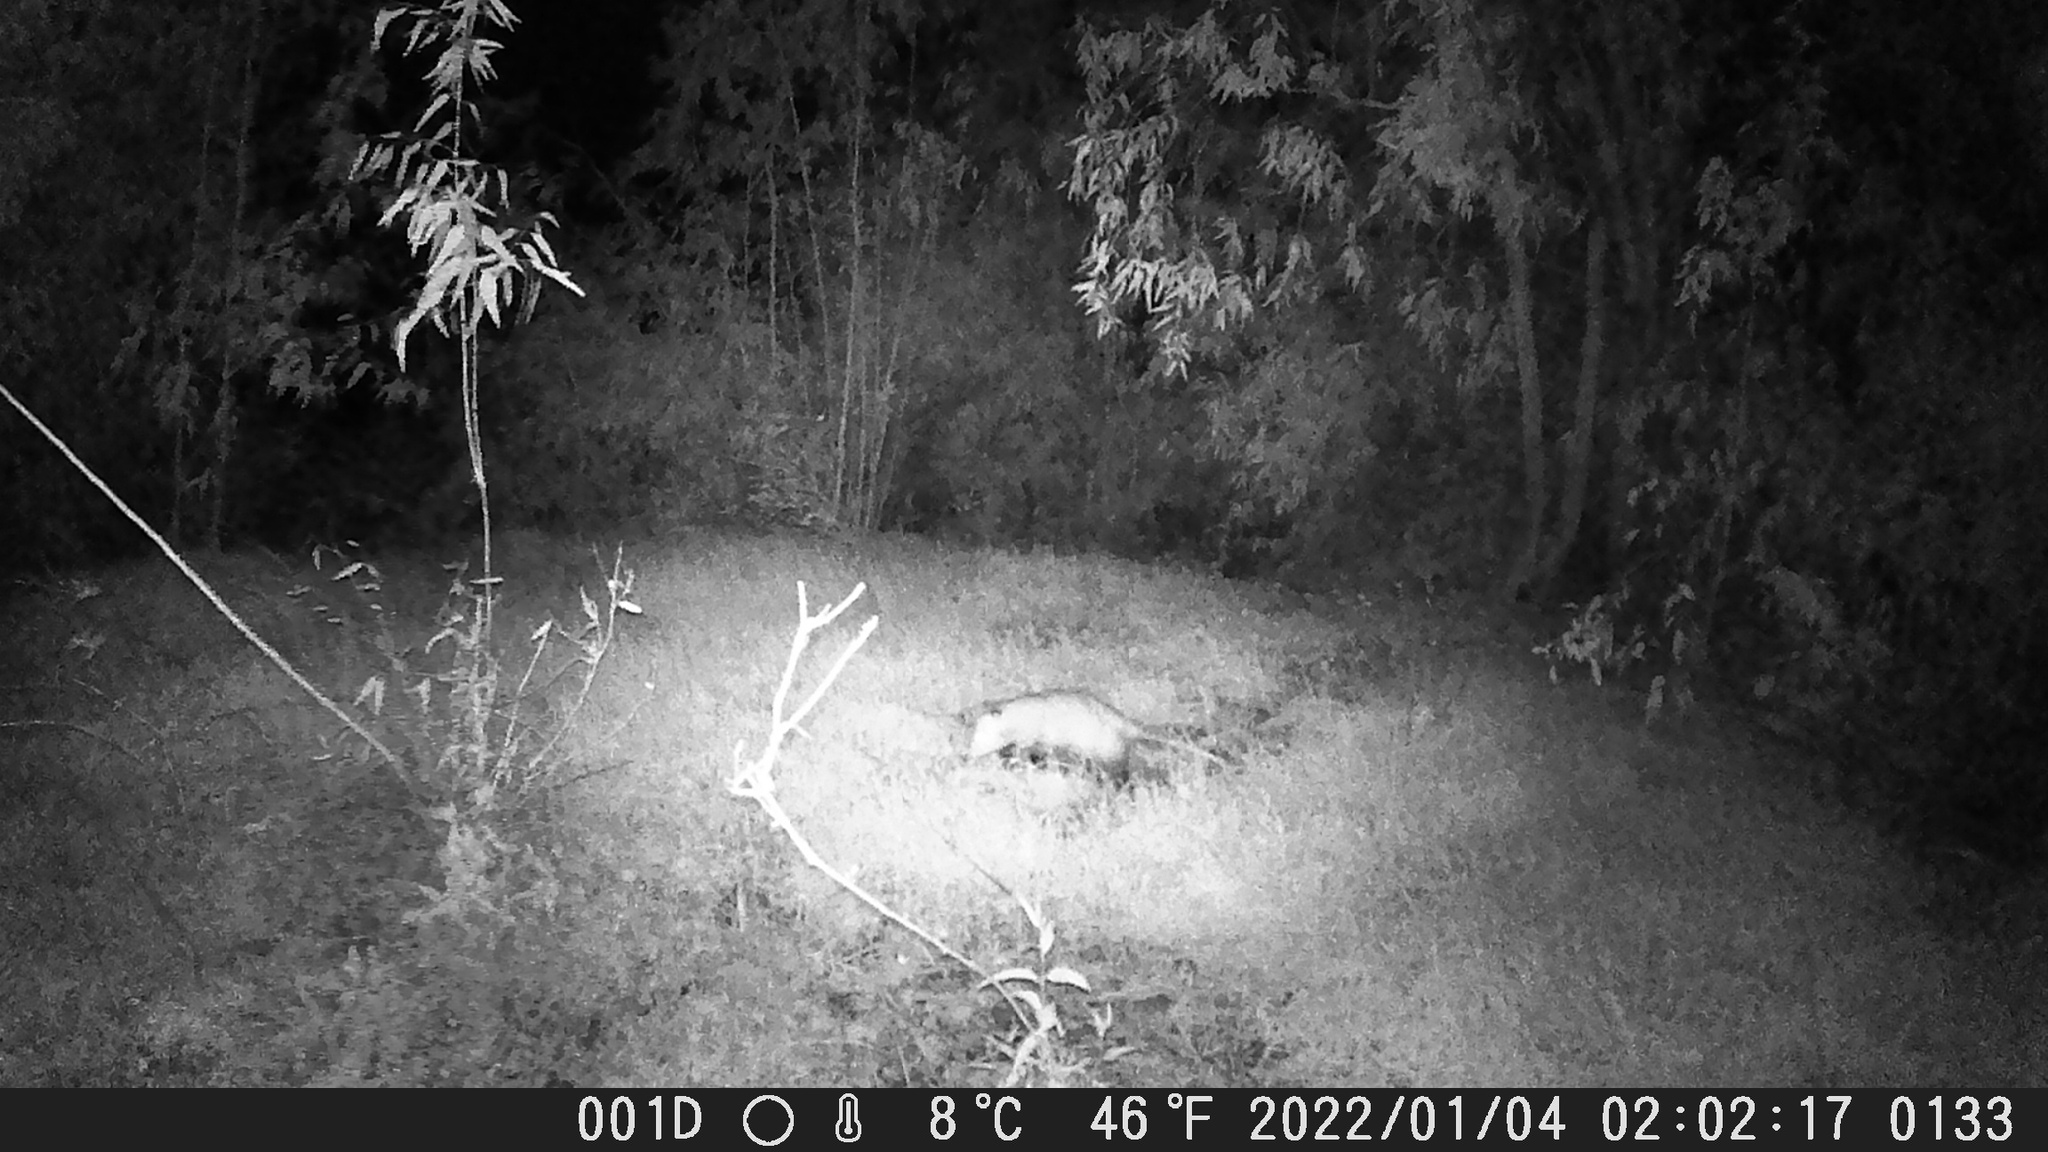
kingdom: Animalia
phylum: Chordata
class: Mammalia
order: Didelphimorphia
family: Didelphidae
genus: Didelphis
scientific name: Didelphis virginiana
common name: Virginia opossum
